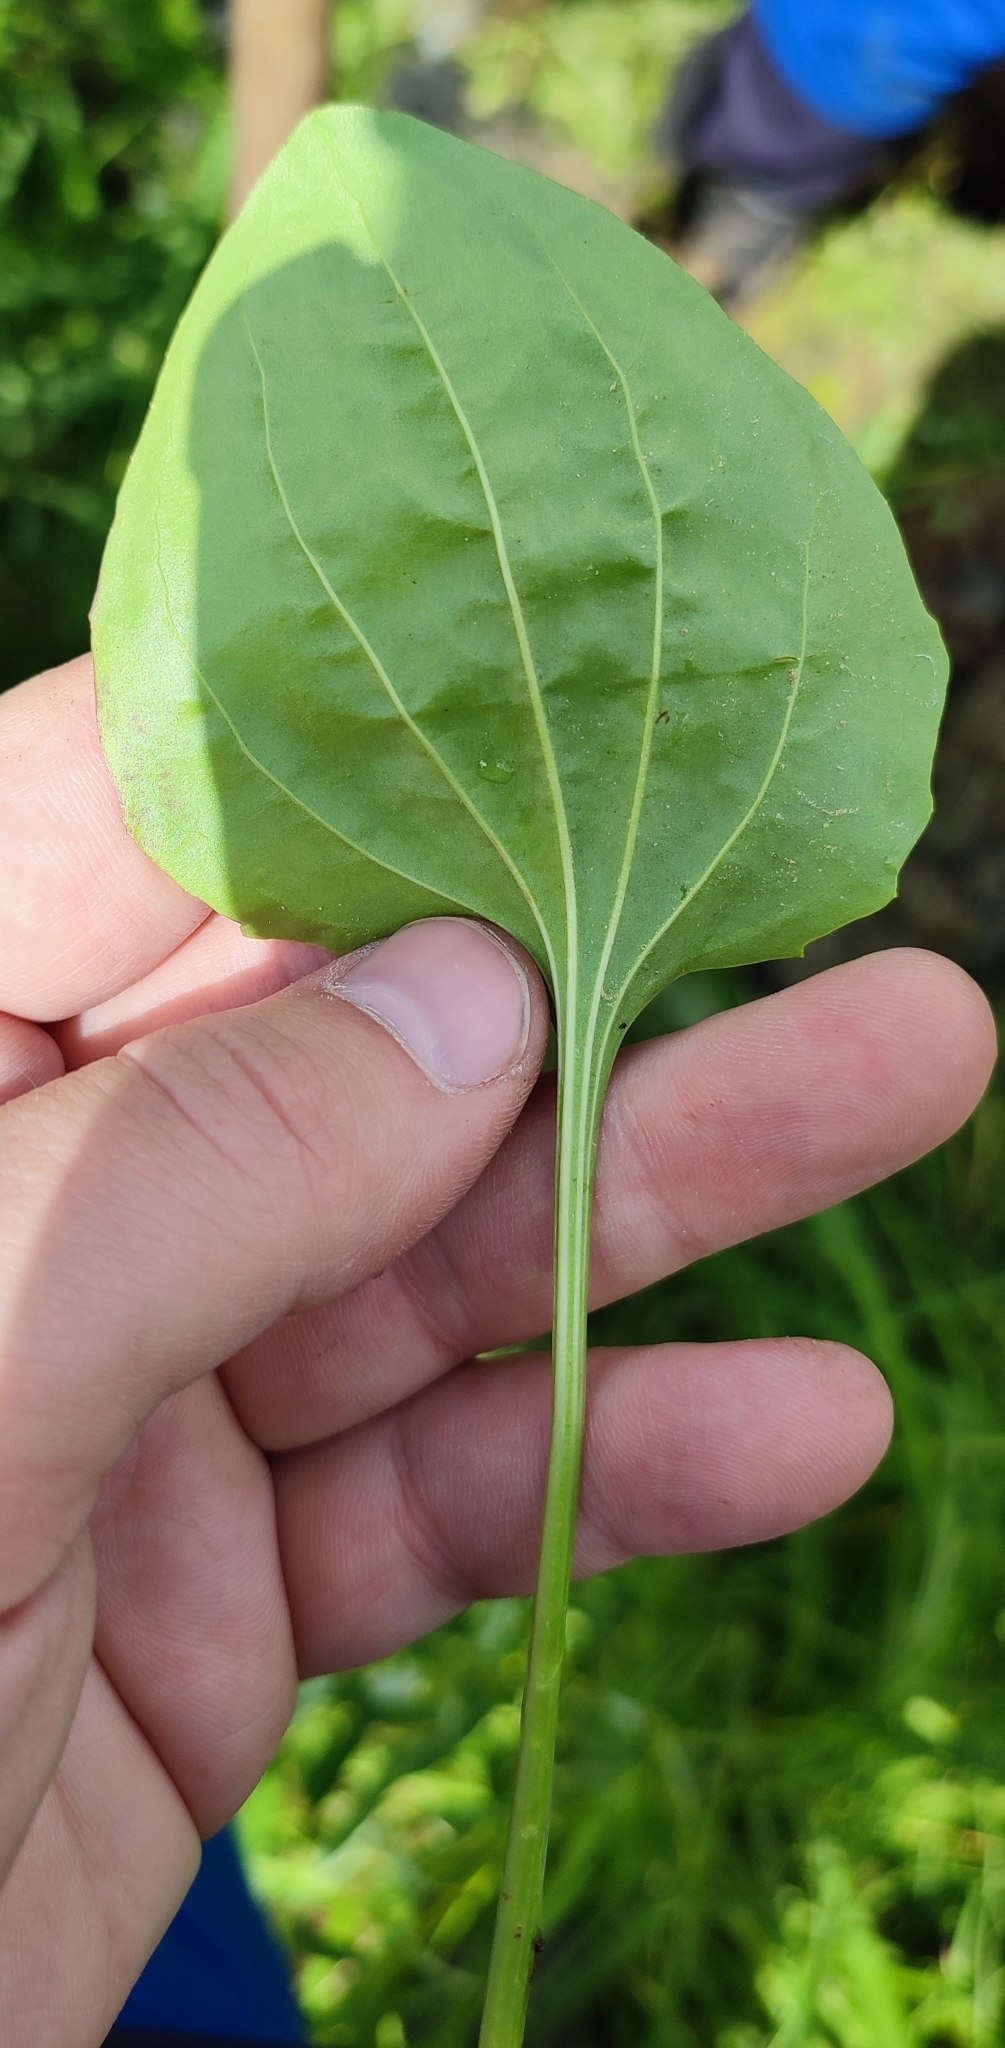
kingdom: Plantae
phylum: Tracheophyta
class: Magnoliopsida
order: Lamiales
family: Plantaginaceae
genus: Plantago
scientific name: Plantago major
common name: Common plantain
